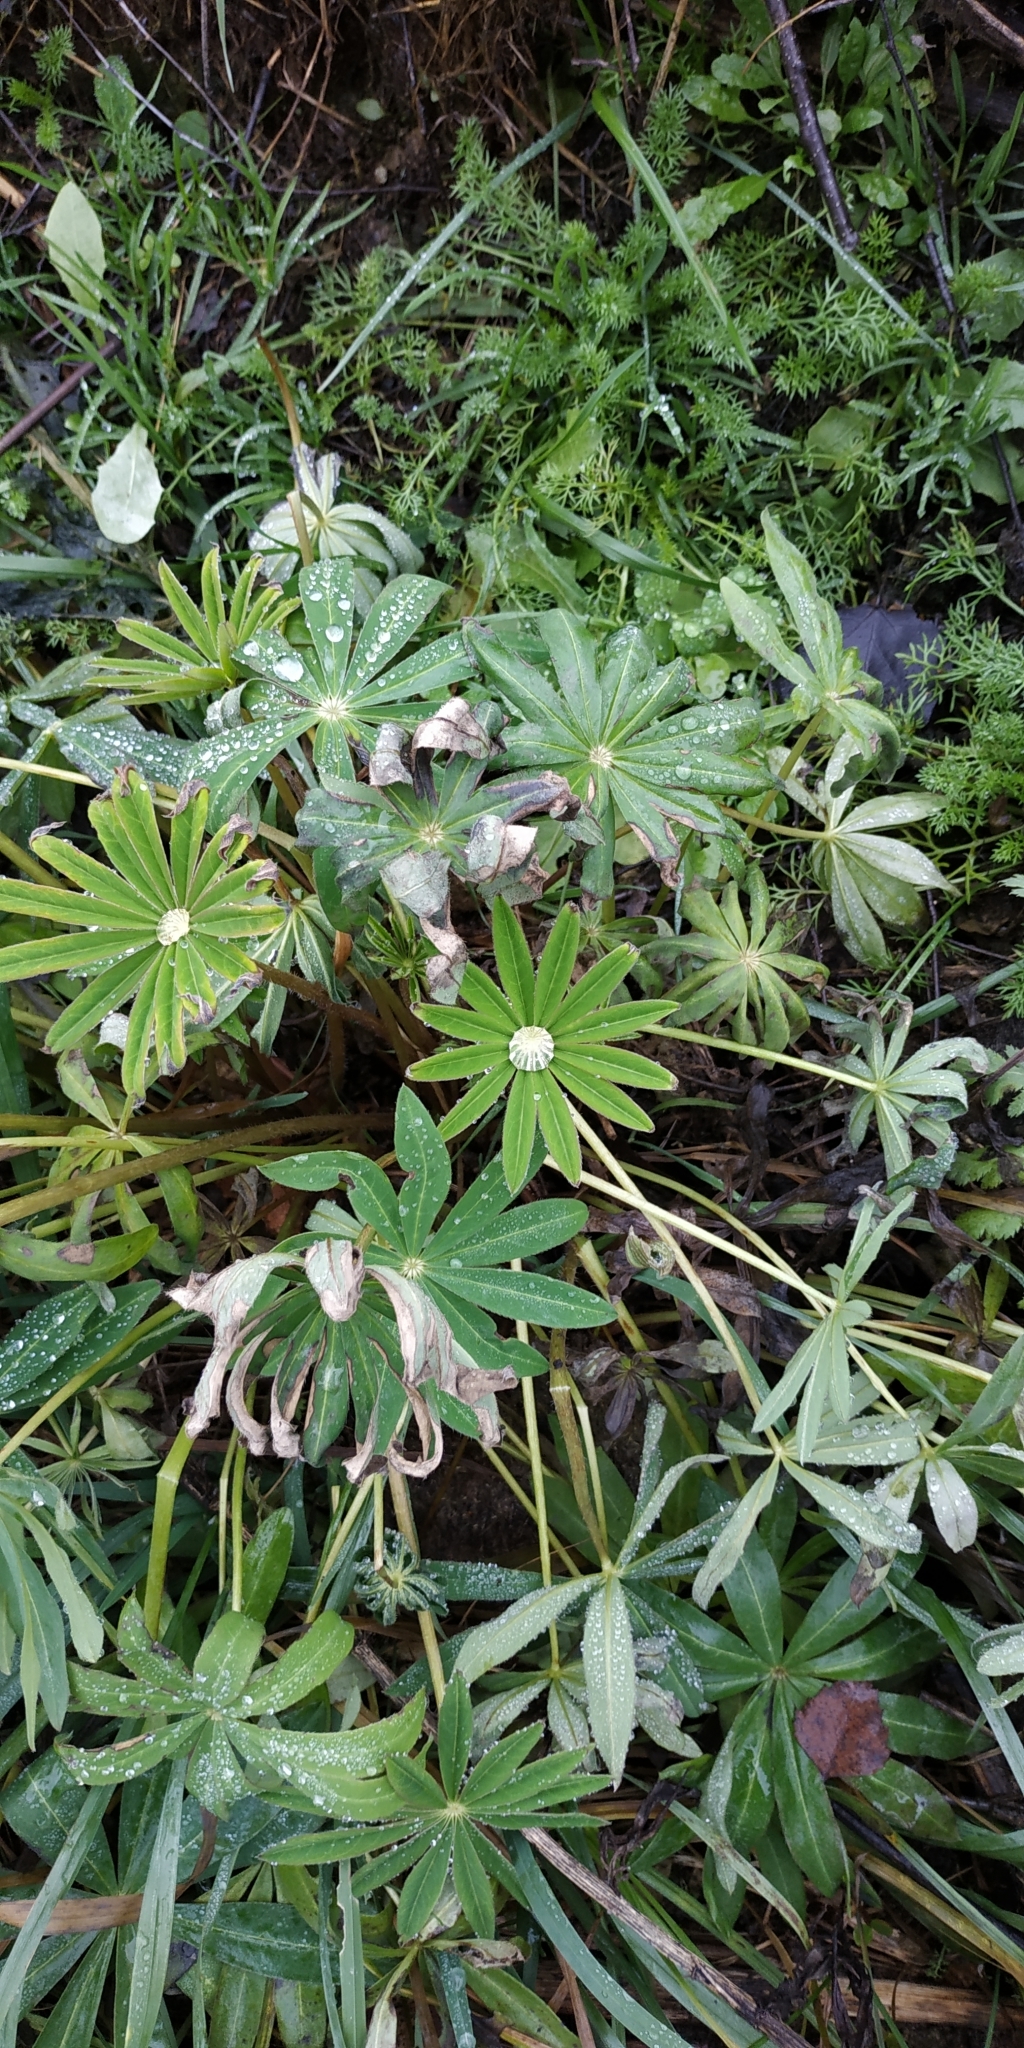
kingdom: Plantae
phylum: Tracheophyta
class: Magnoliopsida
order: Fabales
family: Fabaceae
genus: Lupinus
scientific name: Lupinus polyphyllus
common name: Garden lupin
